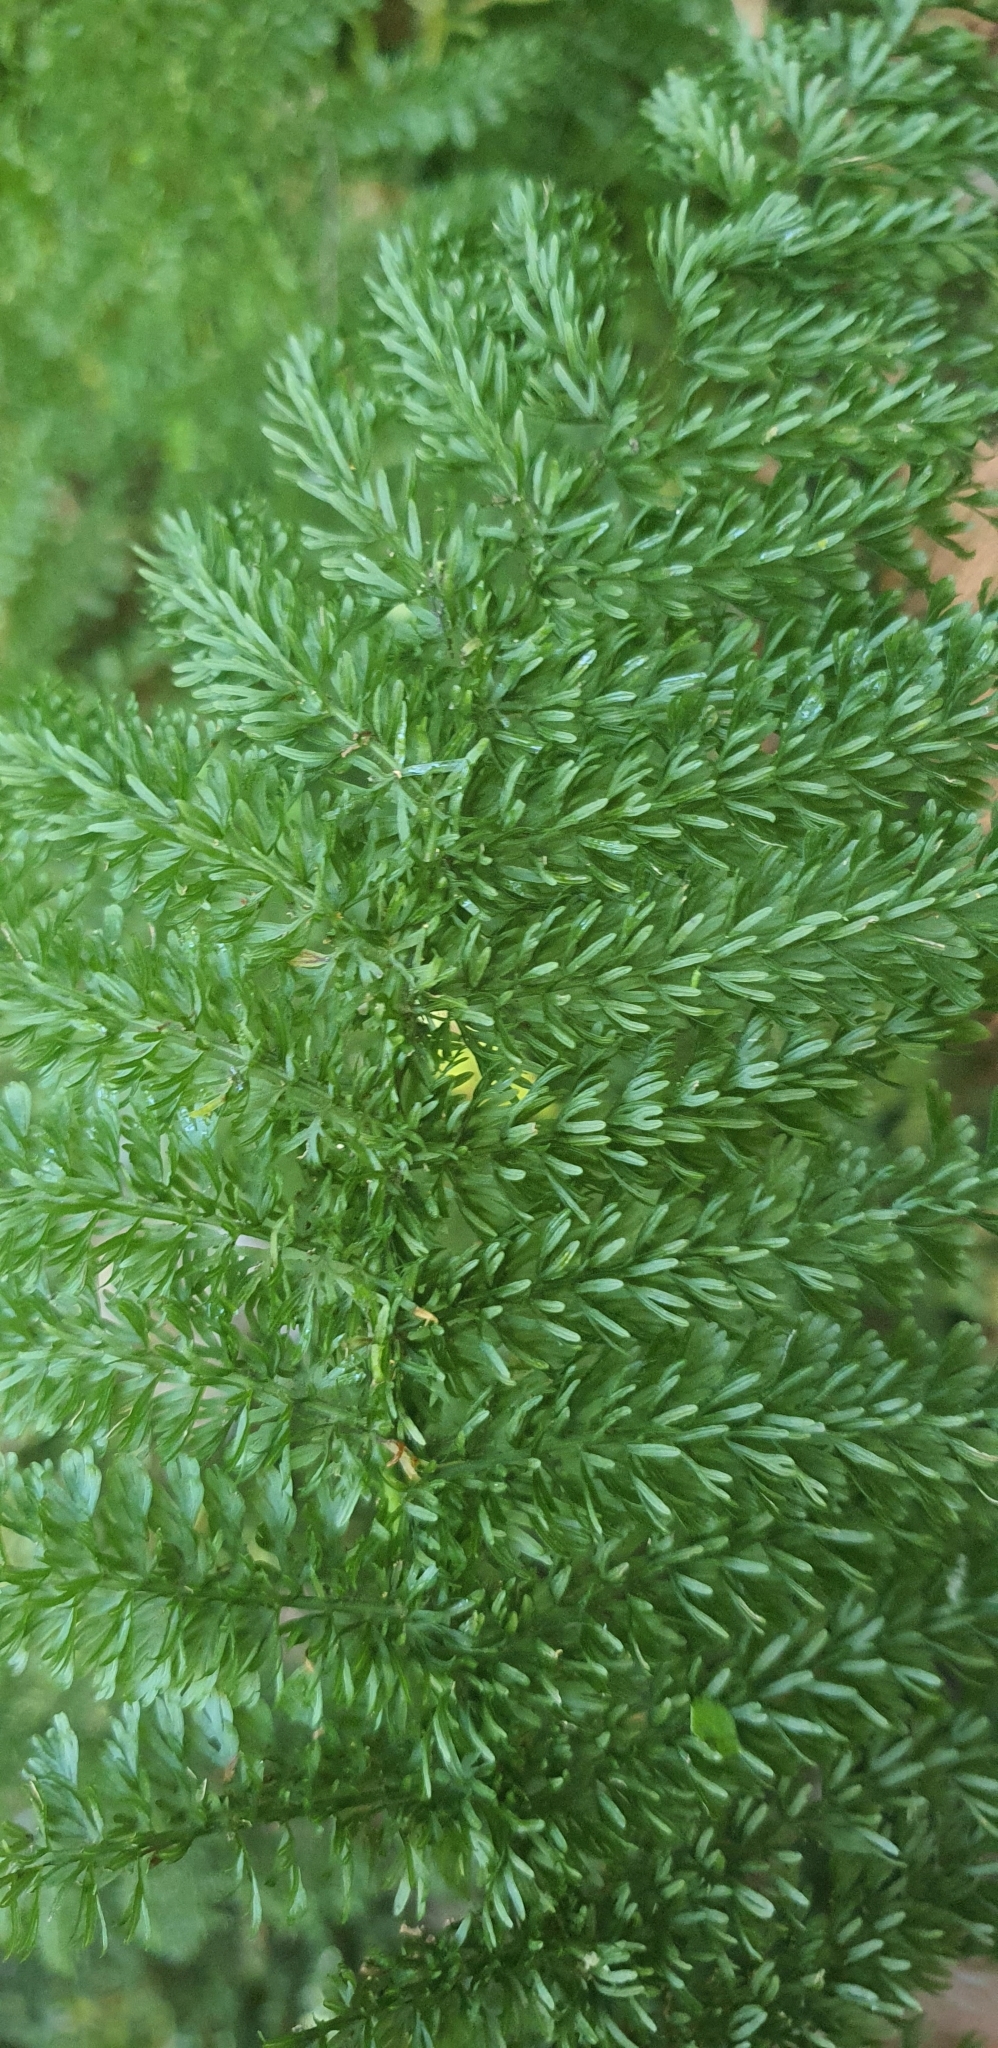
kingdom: Plantae
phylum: Tracheophyta
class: Polypodiopsida
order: Osmundales
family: Osmundaceae
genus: Leptopteris
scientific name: Leptopteris superba
